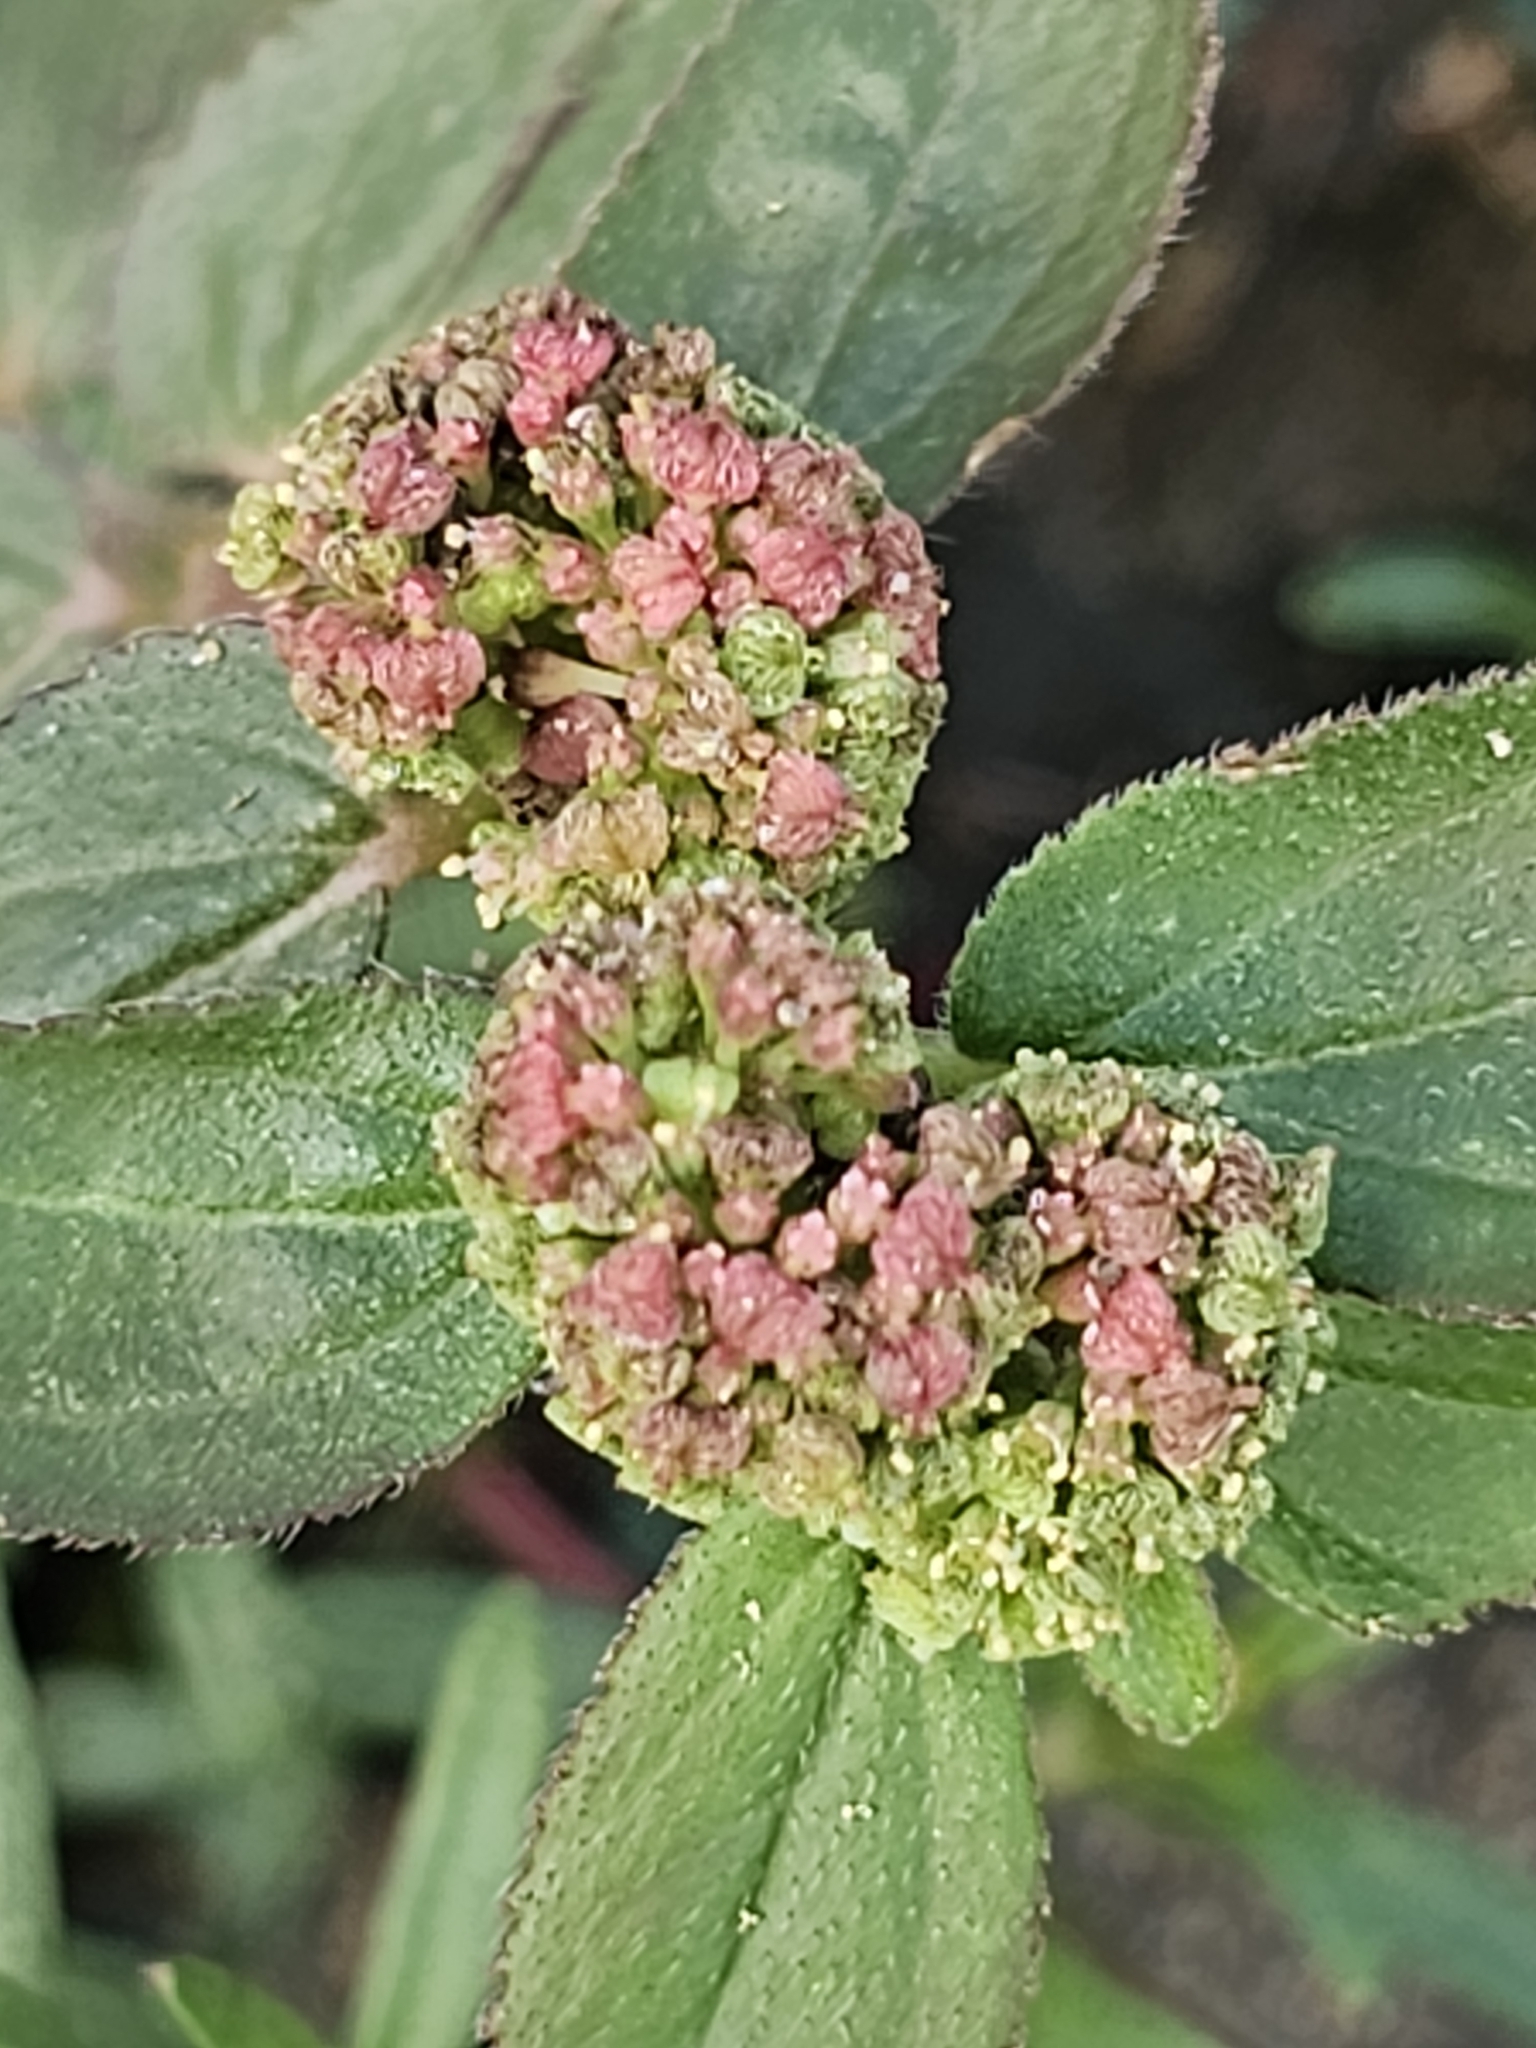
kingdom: Plantae
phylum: Tracheophyta
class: Magnoliopsida
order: Malpighiales
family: Euphorbiaceae
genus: Euphorbia
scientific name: Euphorbia hirta
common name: Pillpod sandmat
